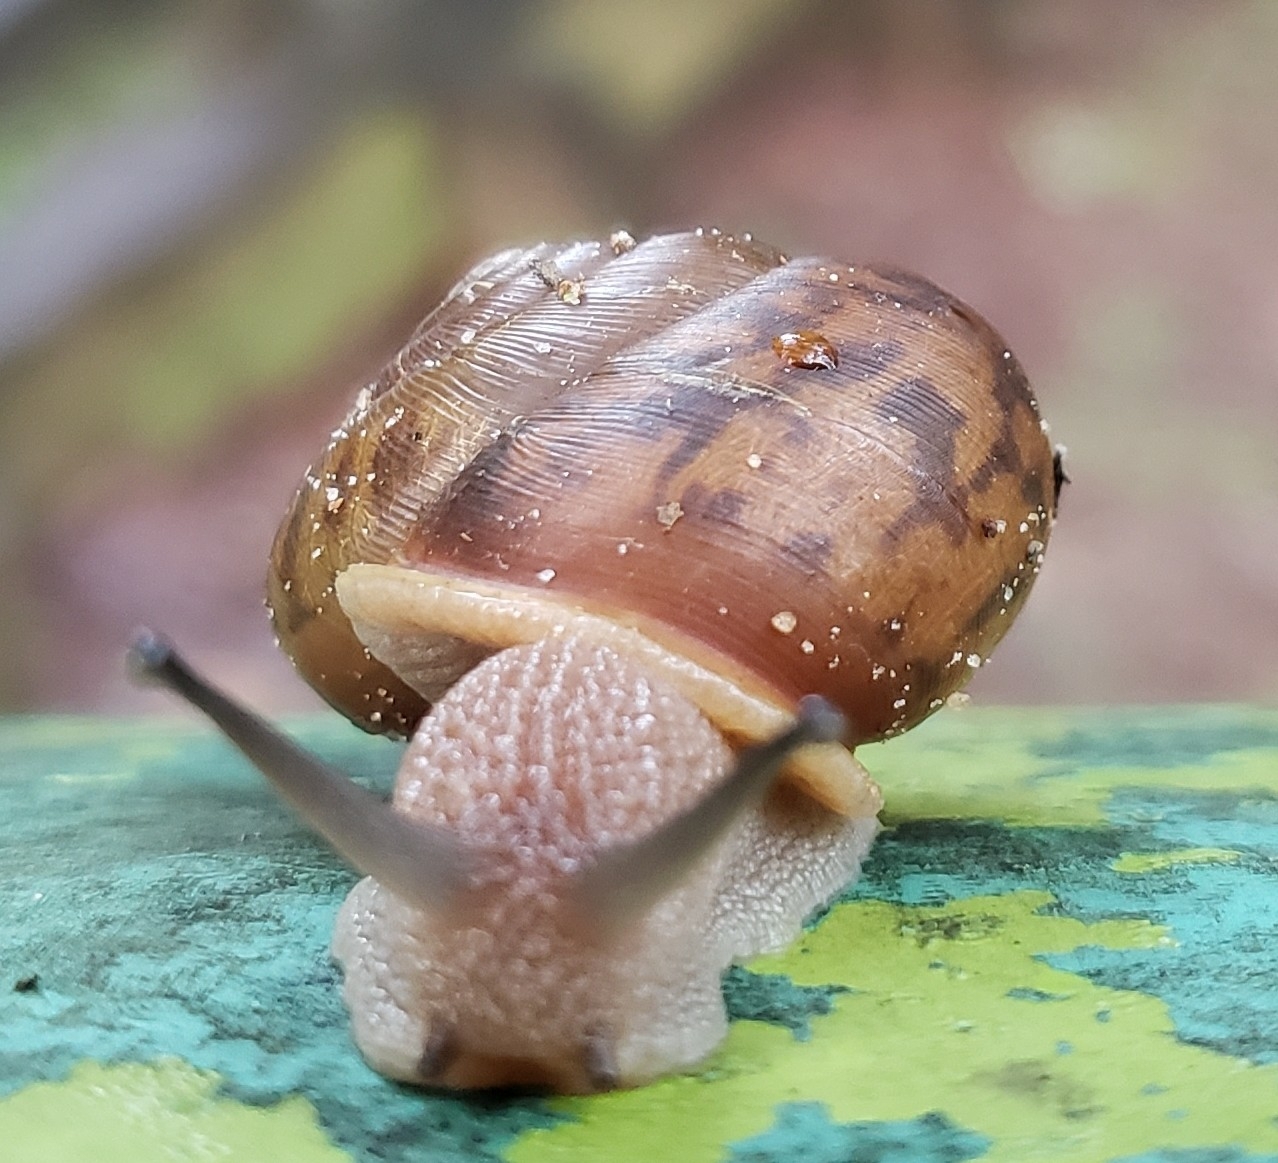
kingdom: Animalia
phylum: Mollusca
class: Gastropoda
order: Stylommatophora
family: Polygyridae
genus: Neohelix
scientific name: Neohelix albolabris
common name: Eastern whitelip
